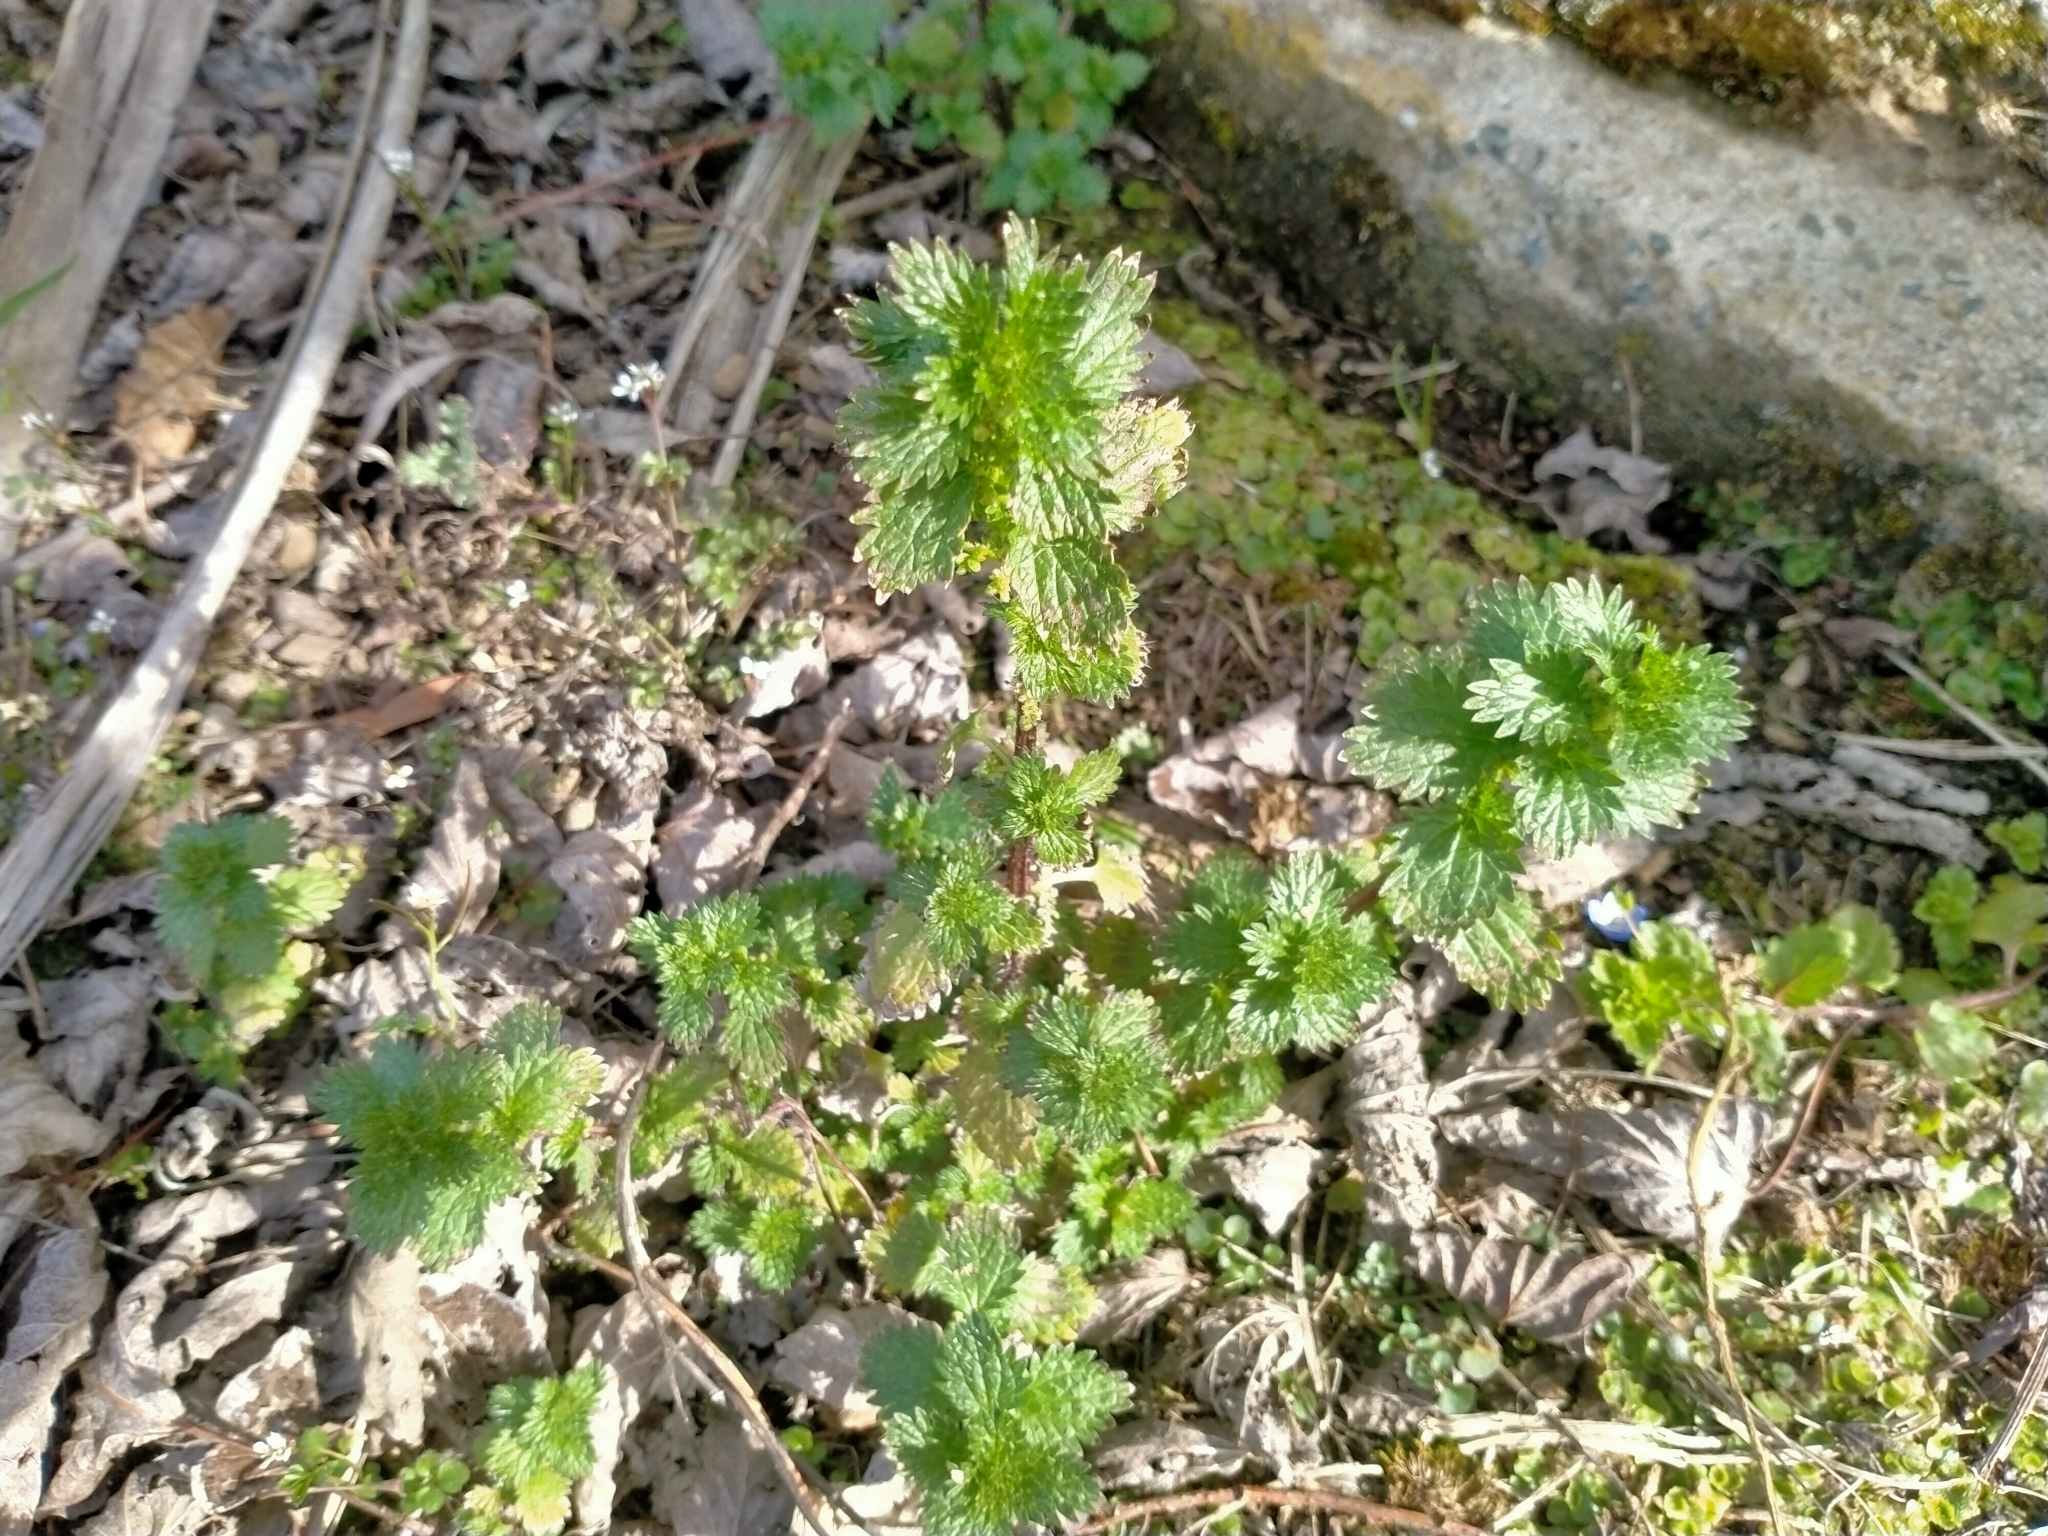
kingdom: Plantae
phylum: Tracheophyta
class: Magnoliopsida
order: Rosales
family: Urticaceae
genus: Urtica
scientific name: Urtica urens
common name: Dwarf nettle
